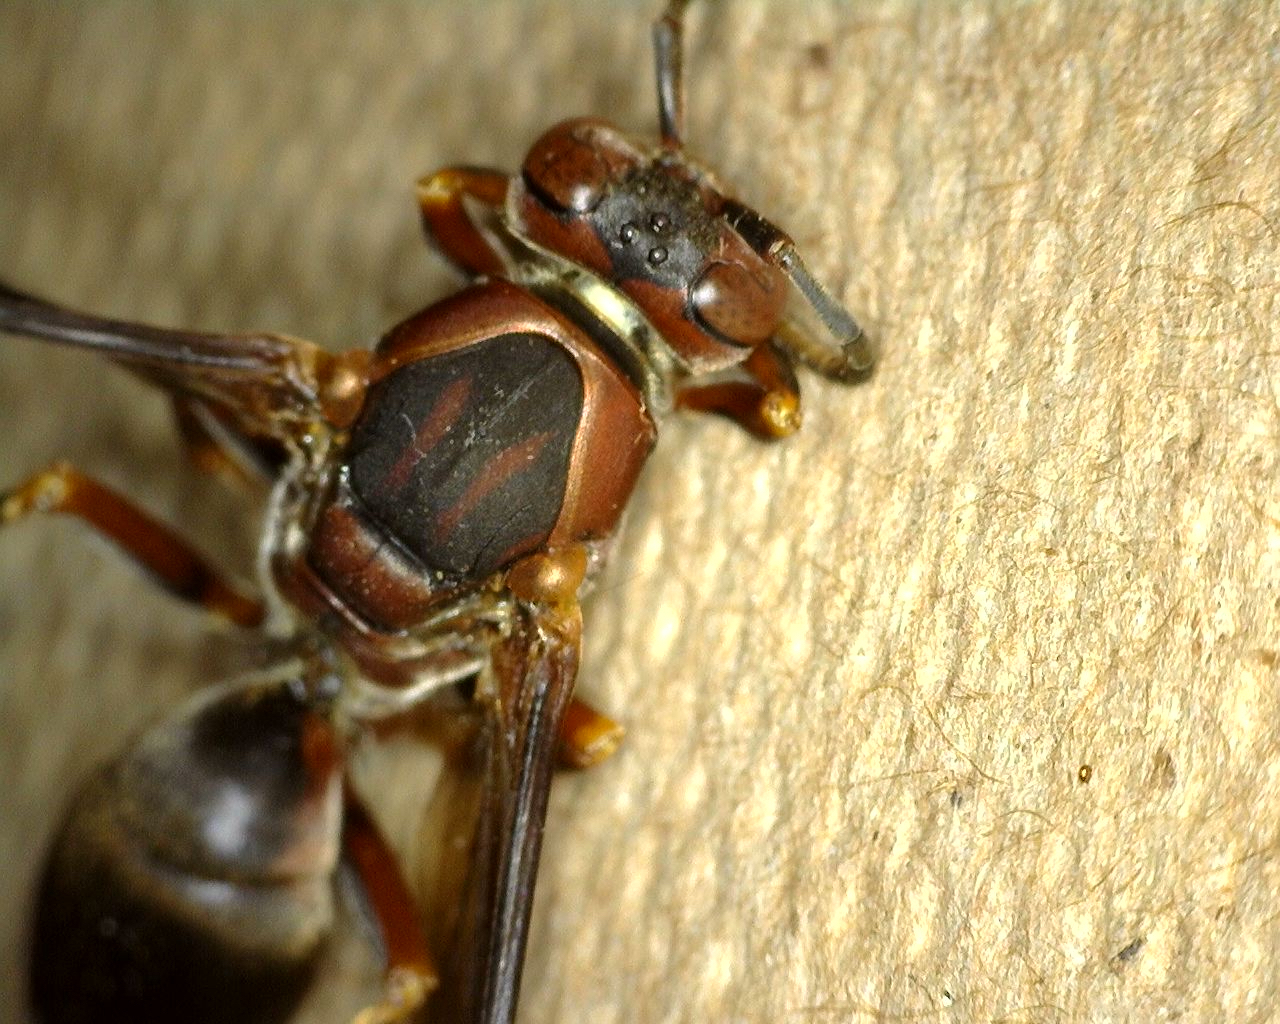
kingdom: Animalia
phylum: Arthropoda
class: Insecta
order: Hymenoptera
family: Eumenidae
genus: Polistes
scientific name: Polistes metricus
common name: Metric paper wasp
